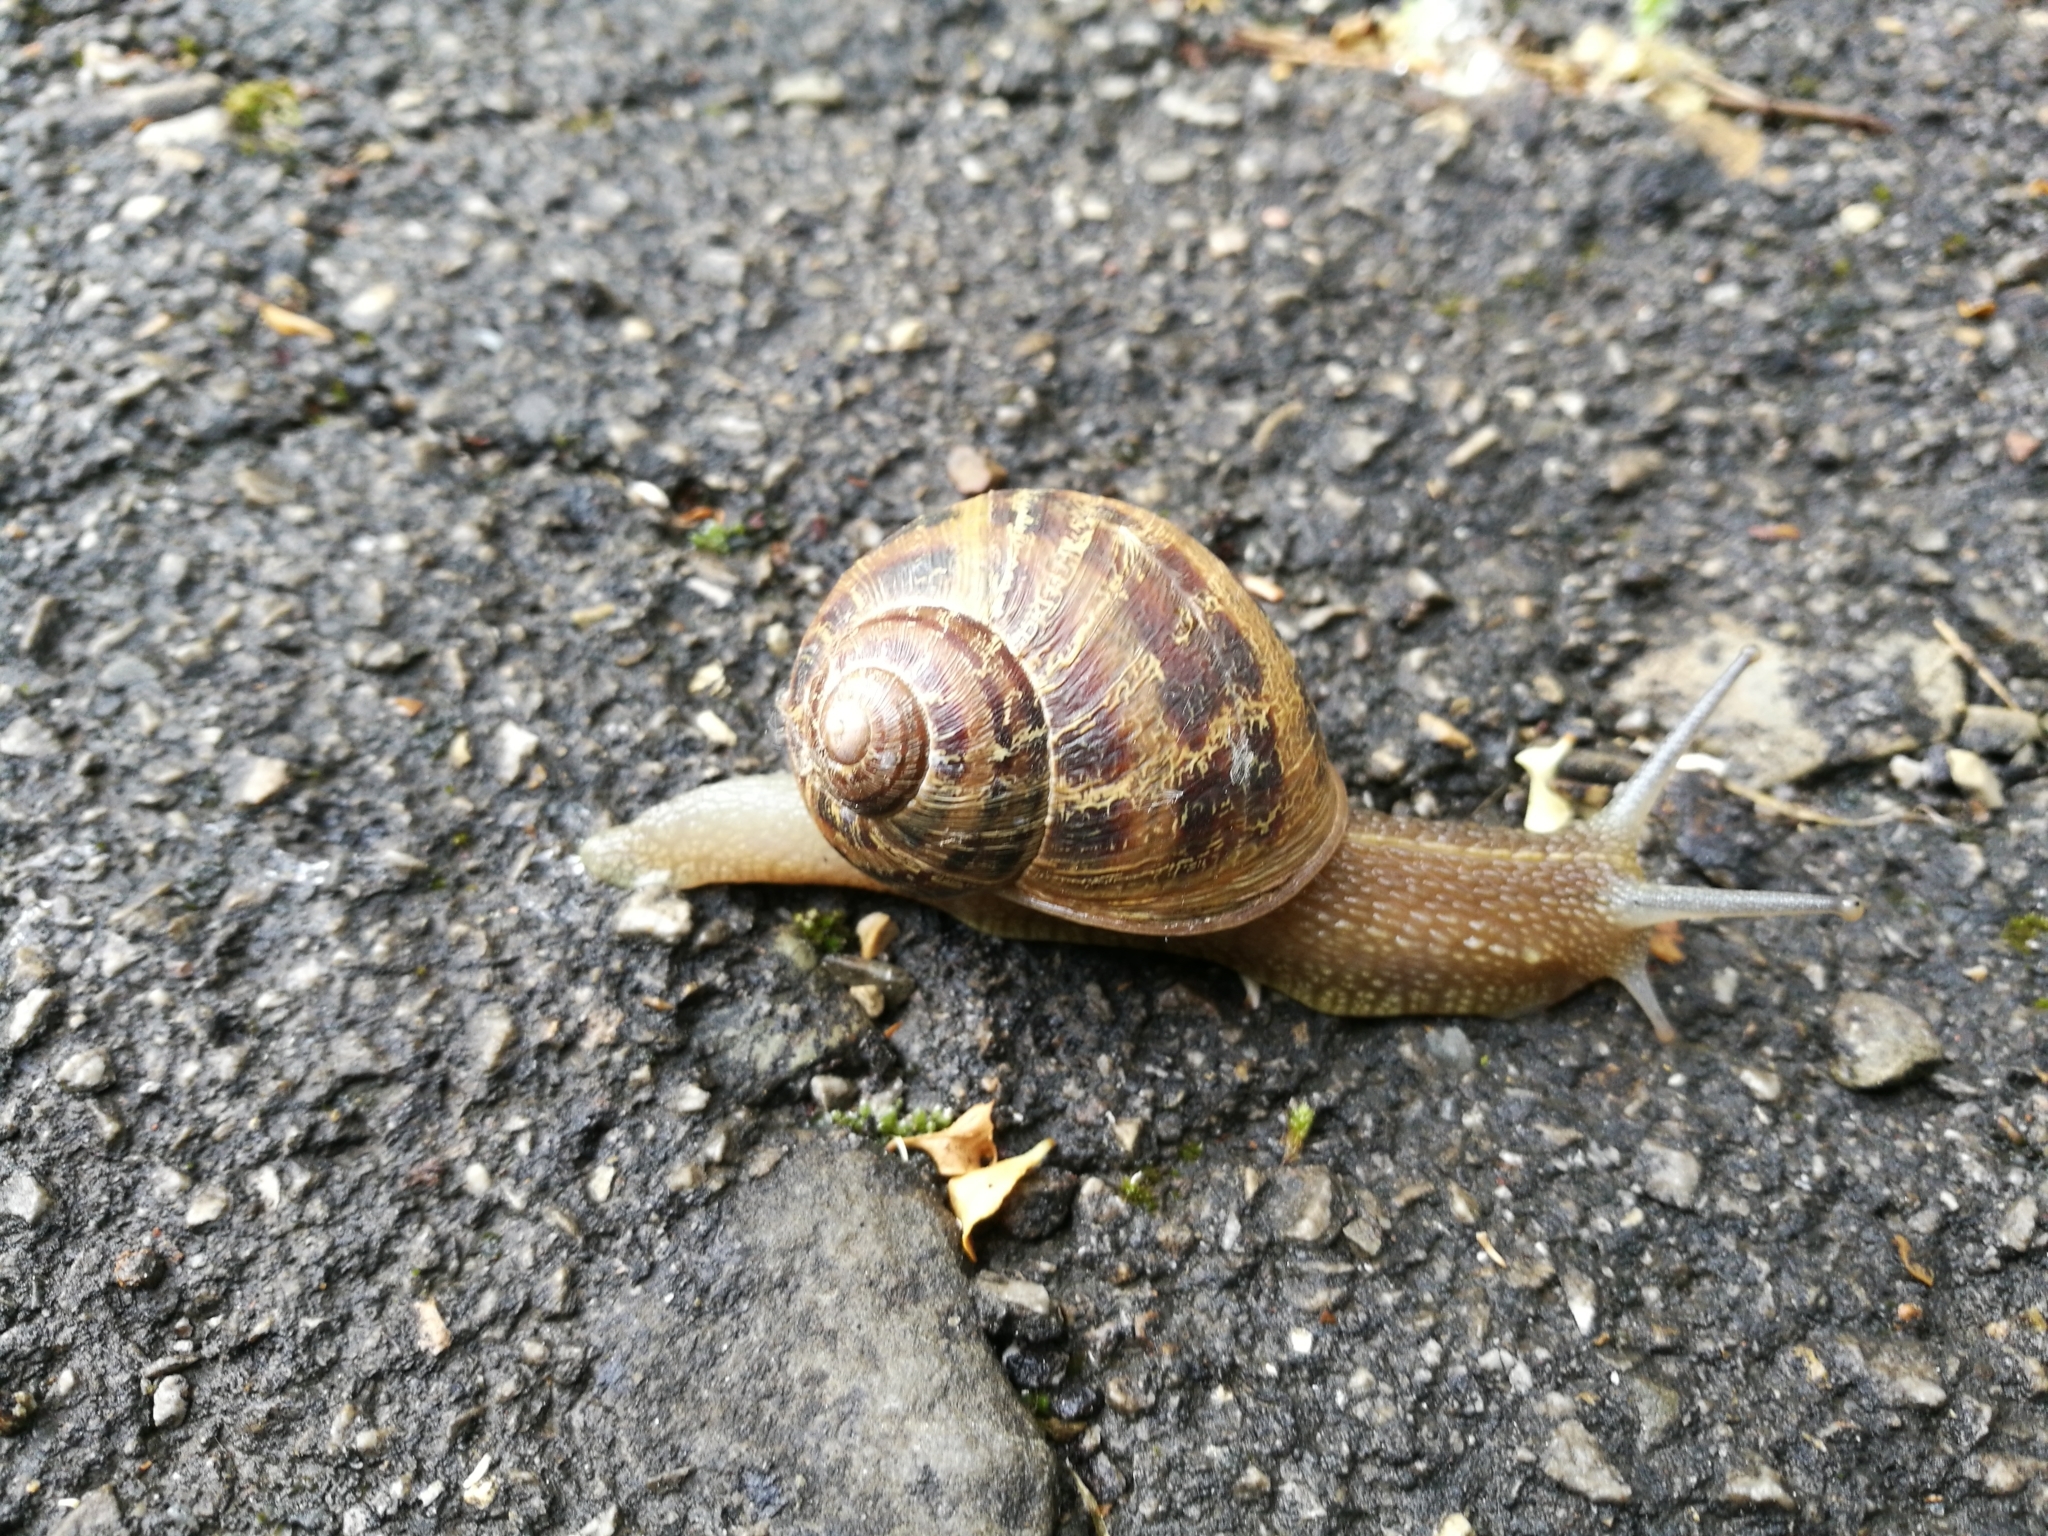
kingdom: Animalia
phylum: Mollusca
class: Gastropoda
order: Stylommatophora
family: Helicidae
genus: Cornu
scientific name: Cornu aspersum
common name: Brown garden snail
